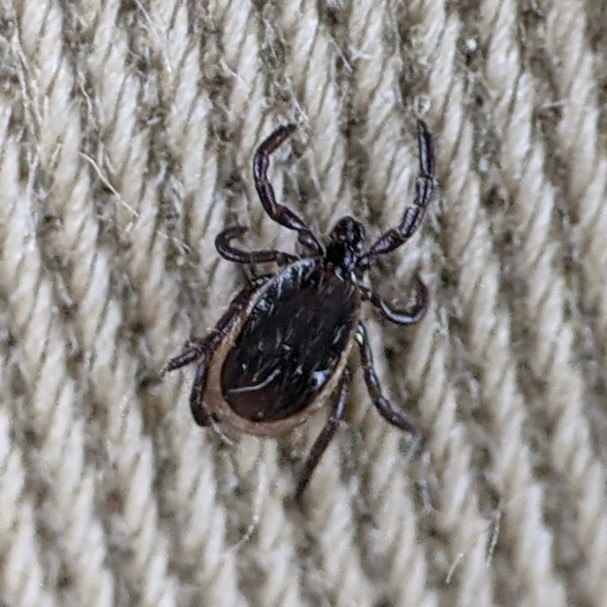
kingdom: Animalia
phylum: Arthropoda
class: Arachnida
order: Ixodida
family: Ixodidae
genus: Ixodes
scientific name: Ixodes scapularis
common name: Black legged tick
